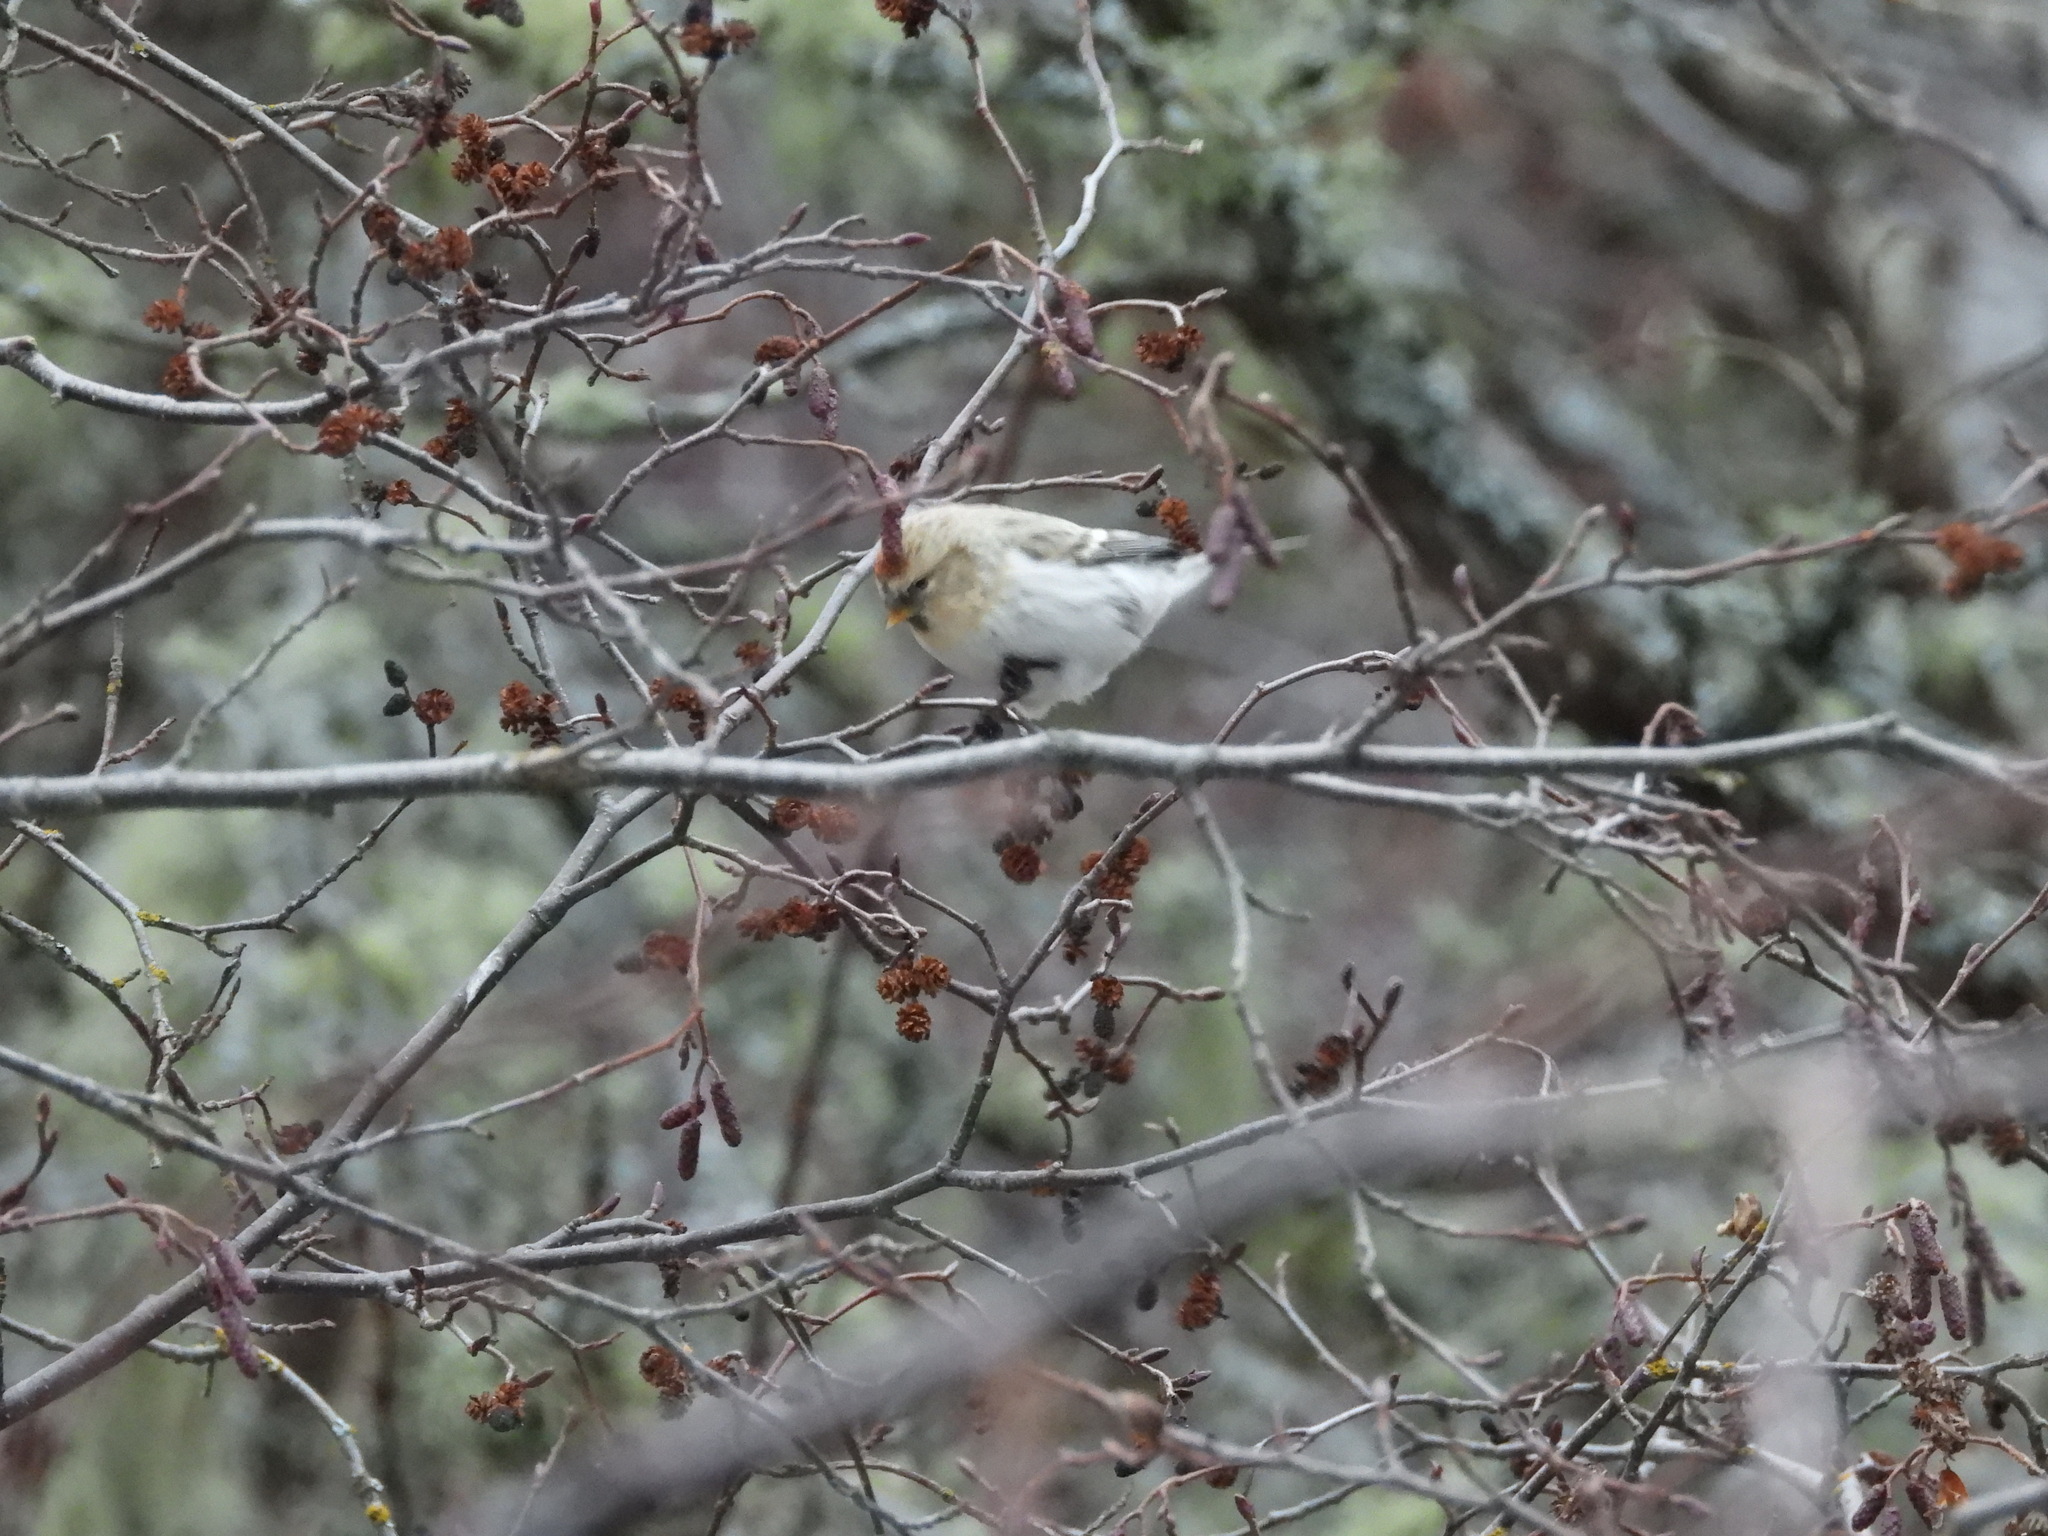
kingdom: Animalia
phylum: Chordata
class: Aves
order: Passeriformes
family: Fringillidae
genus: Acanthis
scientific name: Acanthis hornemanni
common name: Arctic redpoll
